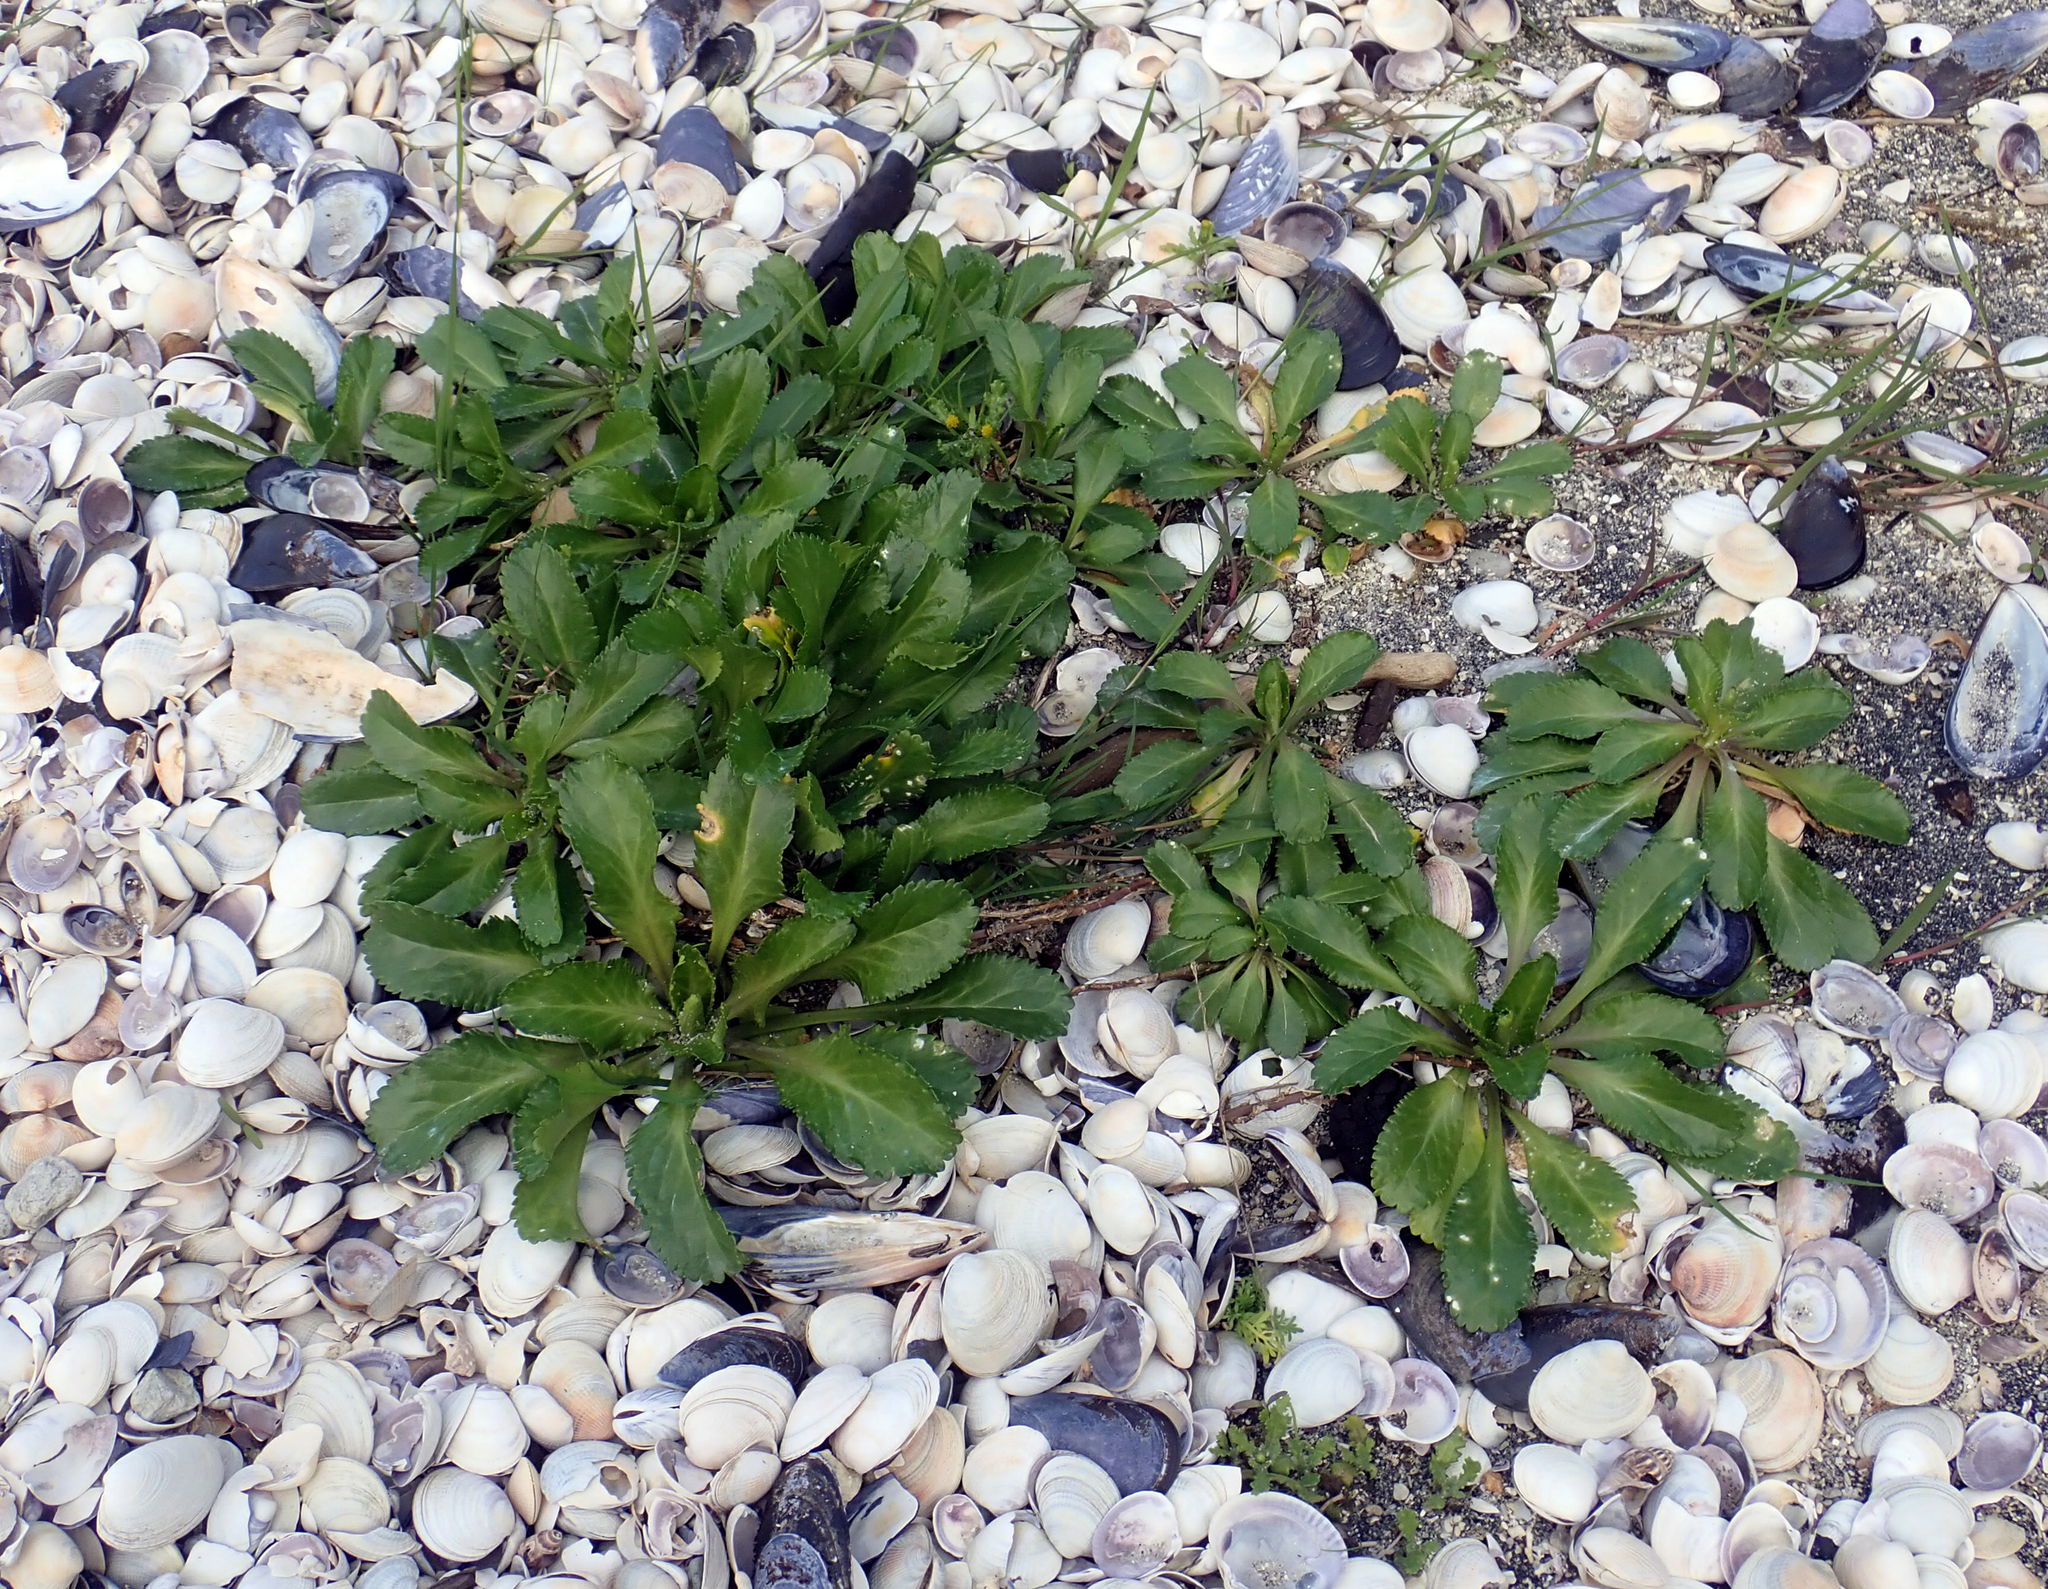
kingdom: Plantae
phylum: Tracheophyta
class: Magnoliopsida
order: Brassicales
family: Brassicaceae
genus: Lepidium
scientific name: Lepidium rekohuense
